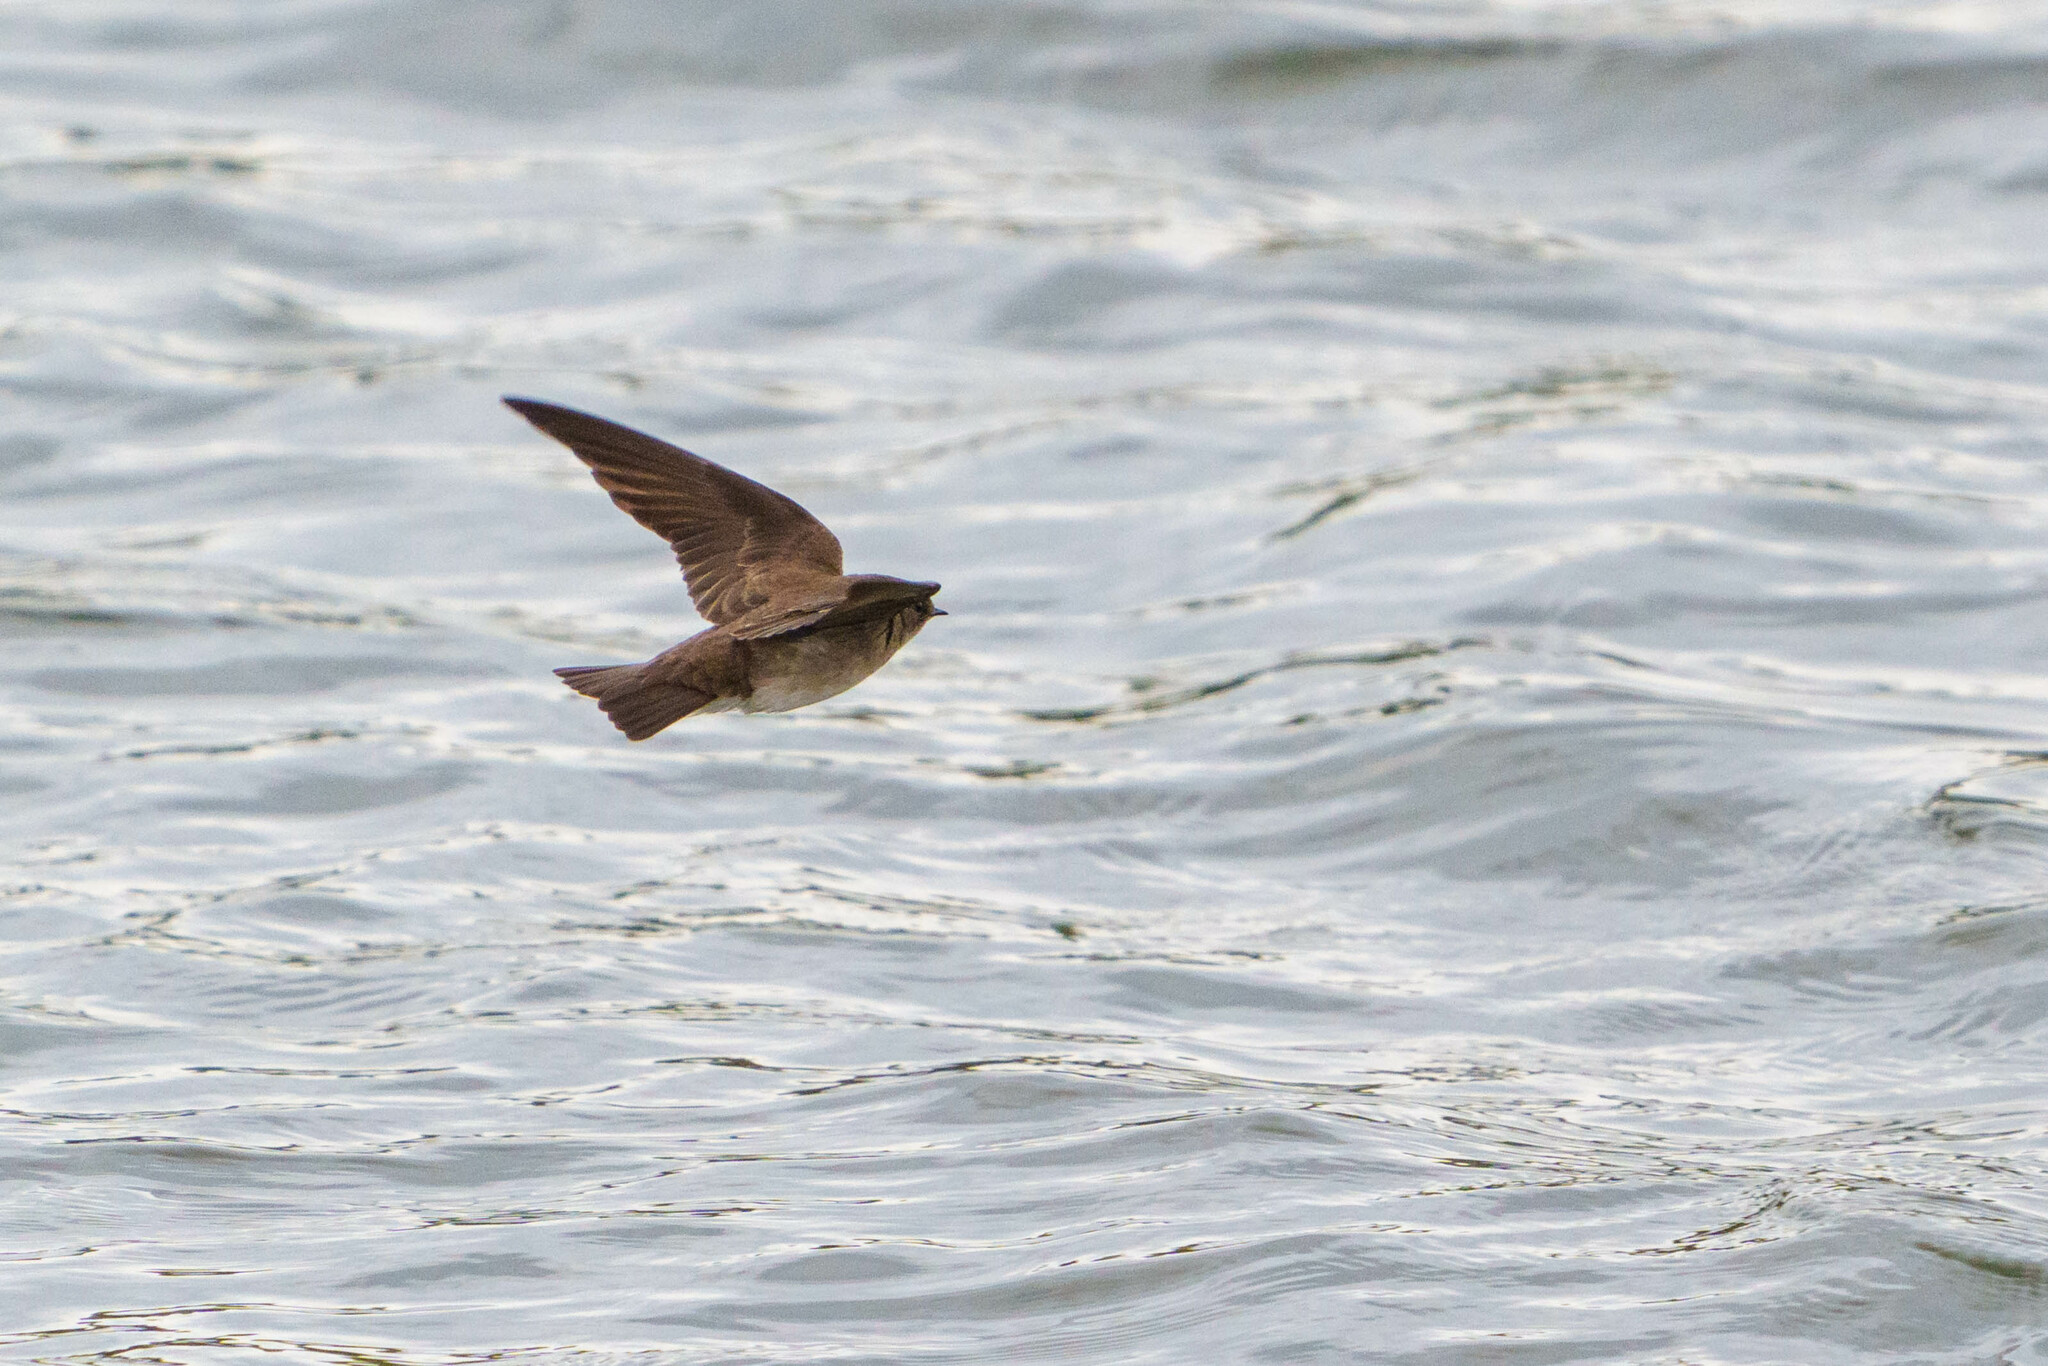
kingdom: Animalia
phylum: Chordata
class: Aves
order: Passeriformes
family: Hirundinidae
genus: Stelgidopteryx
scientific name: Stelgidopteryx serripennis
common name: Northern rough-winged swallow
